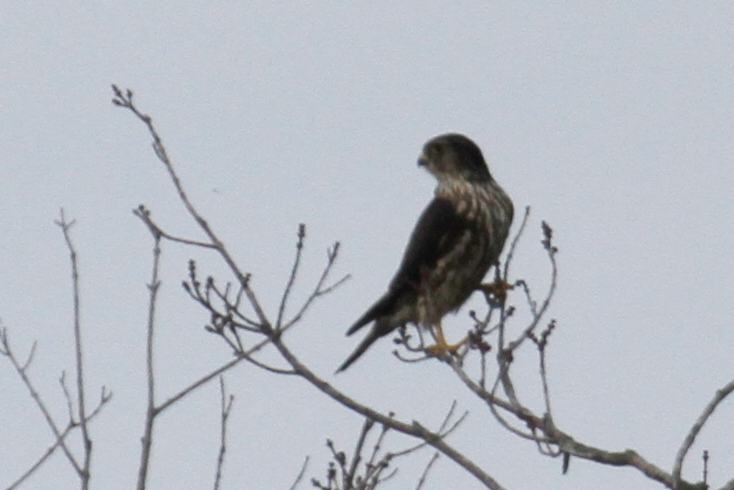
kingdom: Animalia
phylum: Chordata
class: Aves
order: Falconiformes
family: Falconidae
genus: Falco
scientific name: Falco columbarius
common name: Merlin
